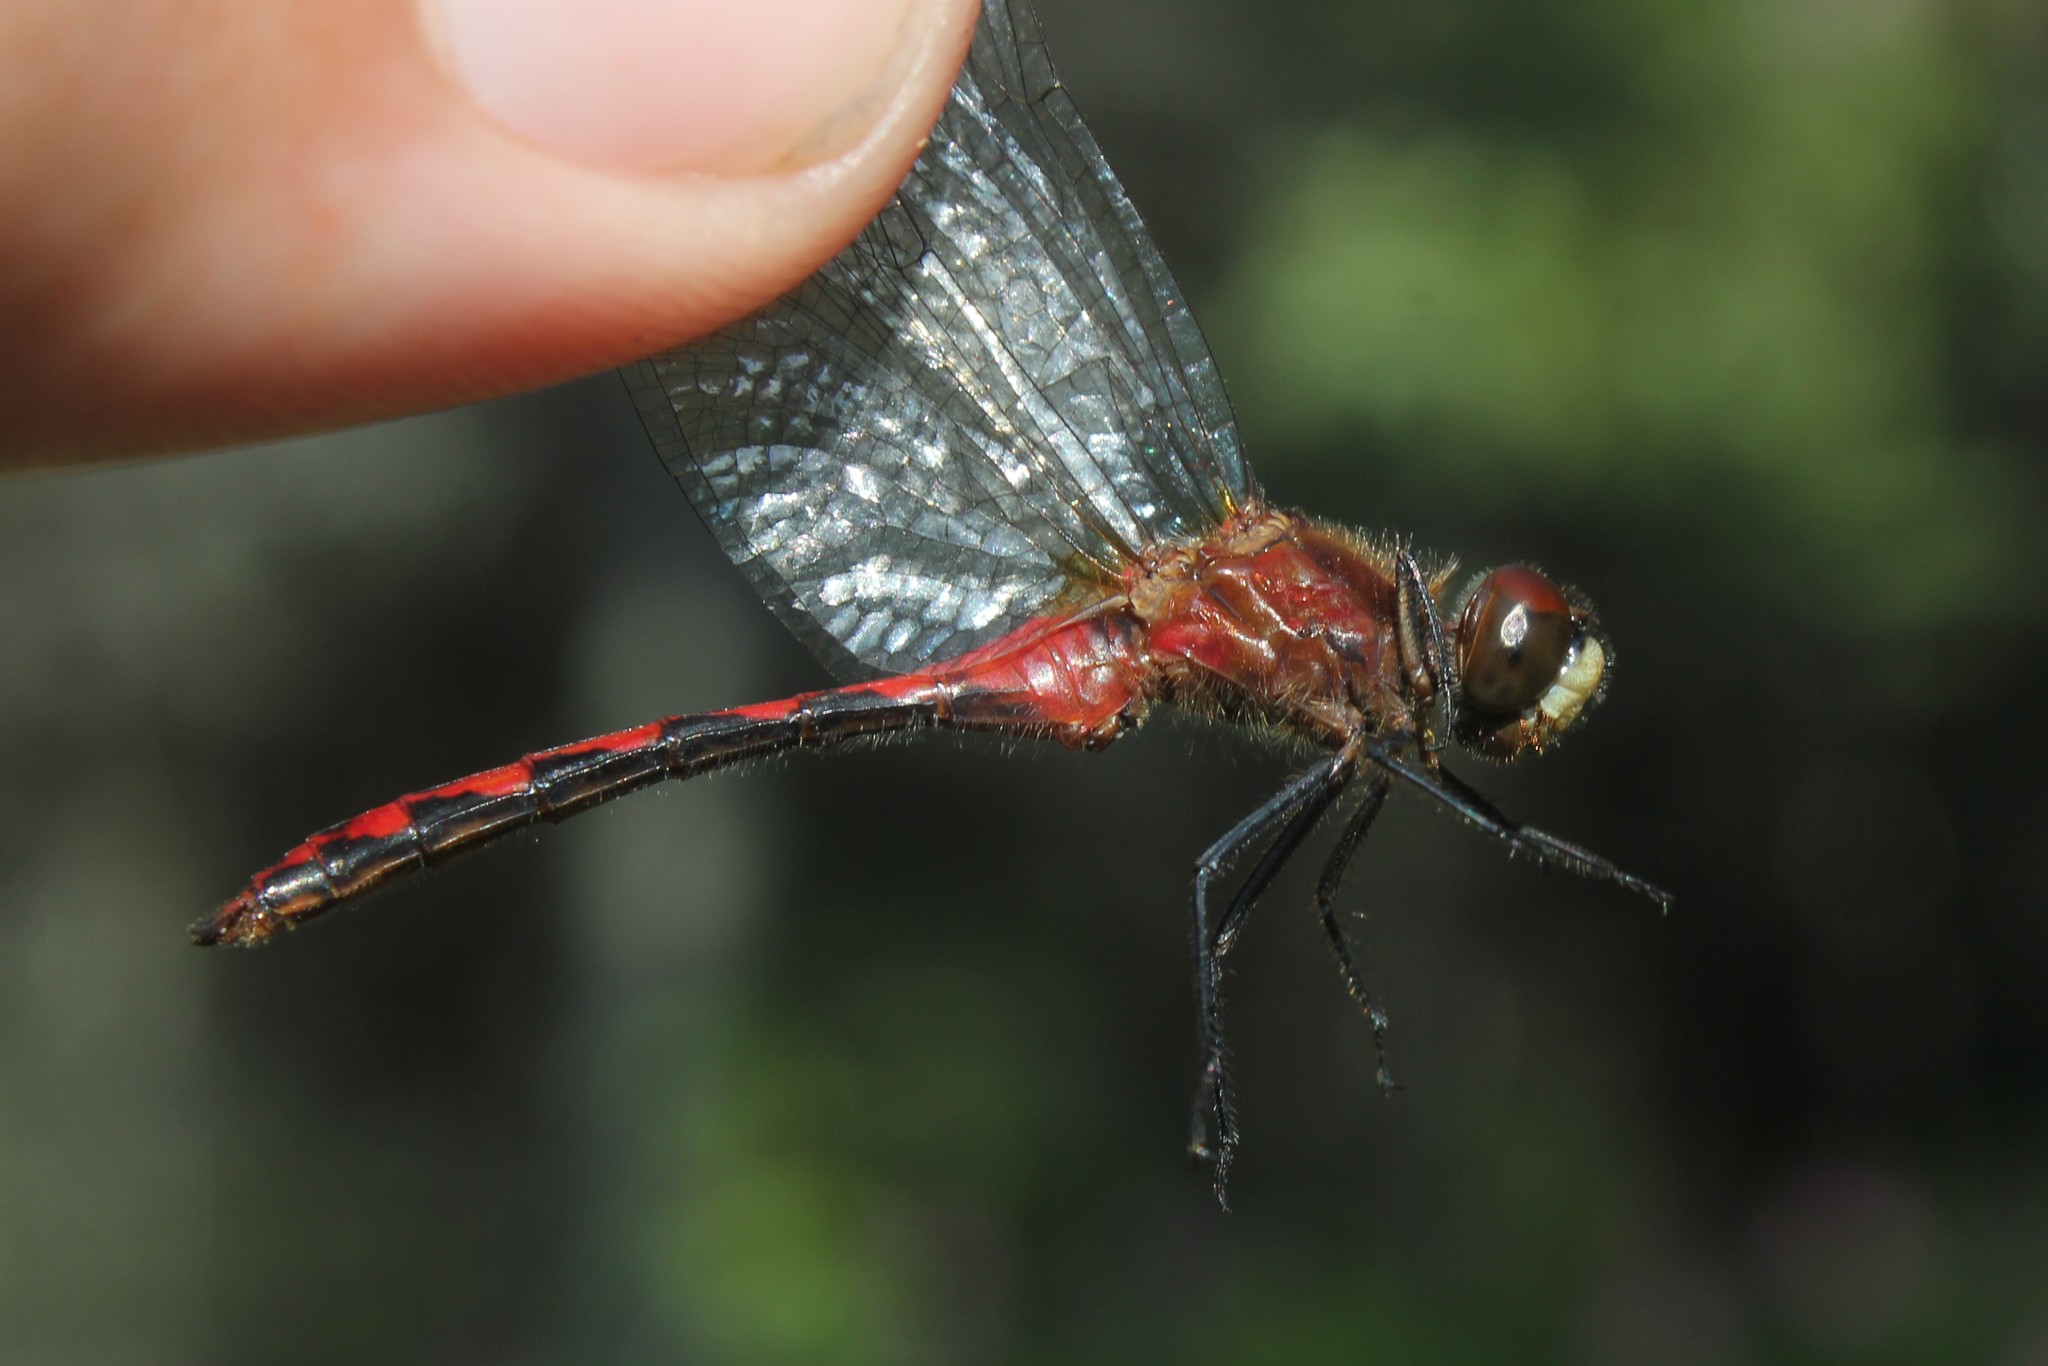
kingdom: Animalia
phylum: Arthropoda
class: Insecta
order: Odonata
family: Libellulidae
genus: Sympetrum
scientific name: Sympetrum obtrusum
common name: White-faced meadowhawk
